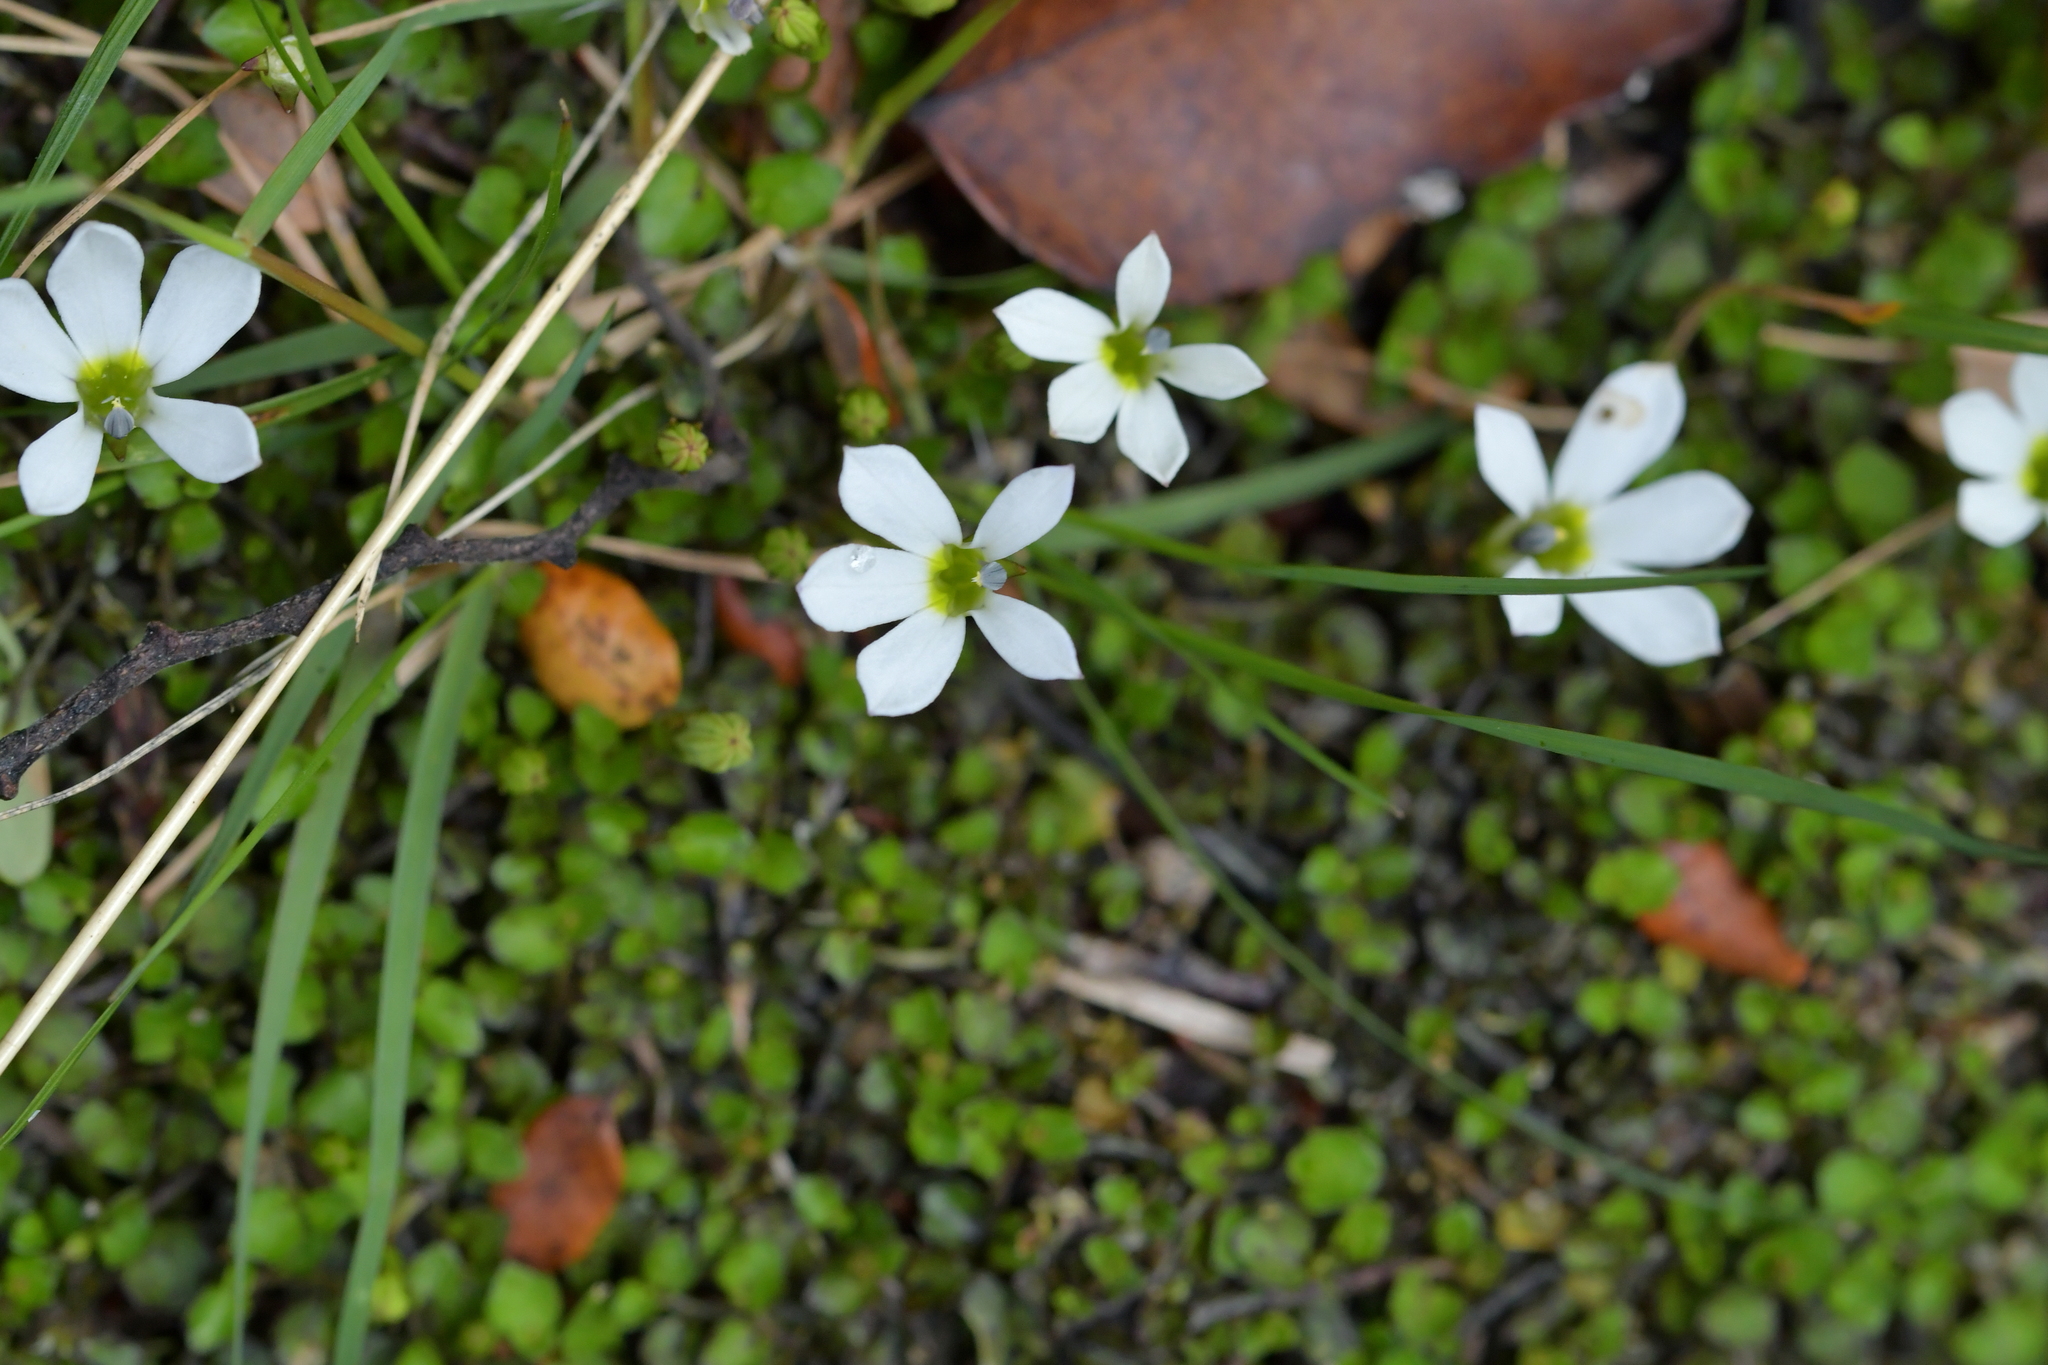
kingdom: Plantae
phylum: Tracheophyta
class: Magnoliopsida
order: Asterales
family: Campanulaceae
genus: Lobelia
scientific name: Lobelia angulata
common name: Lawn lobelia
